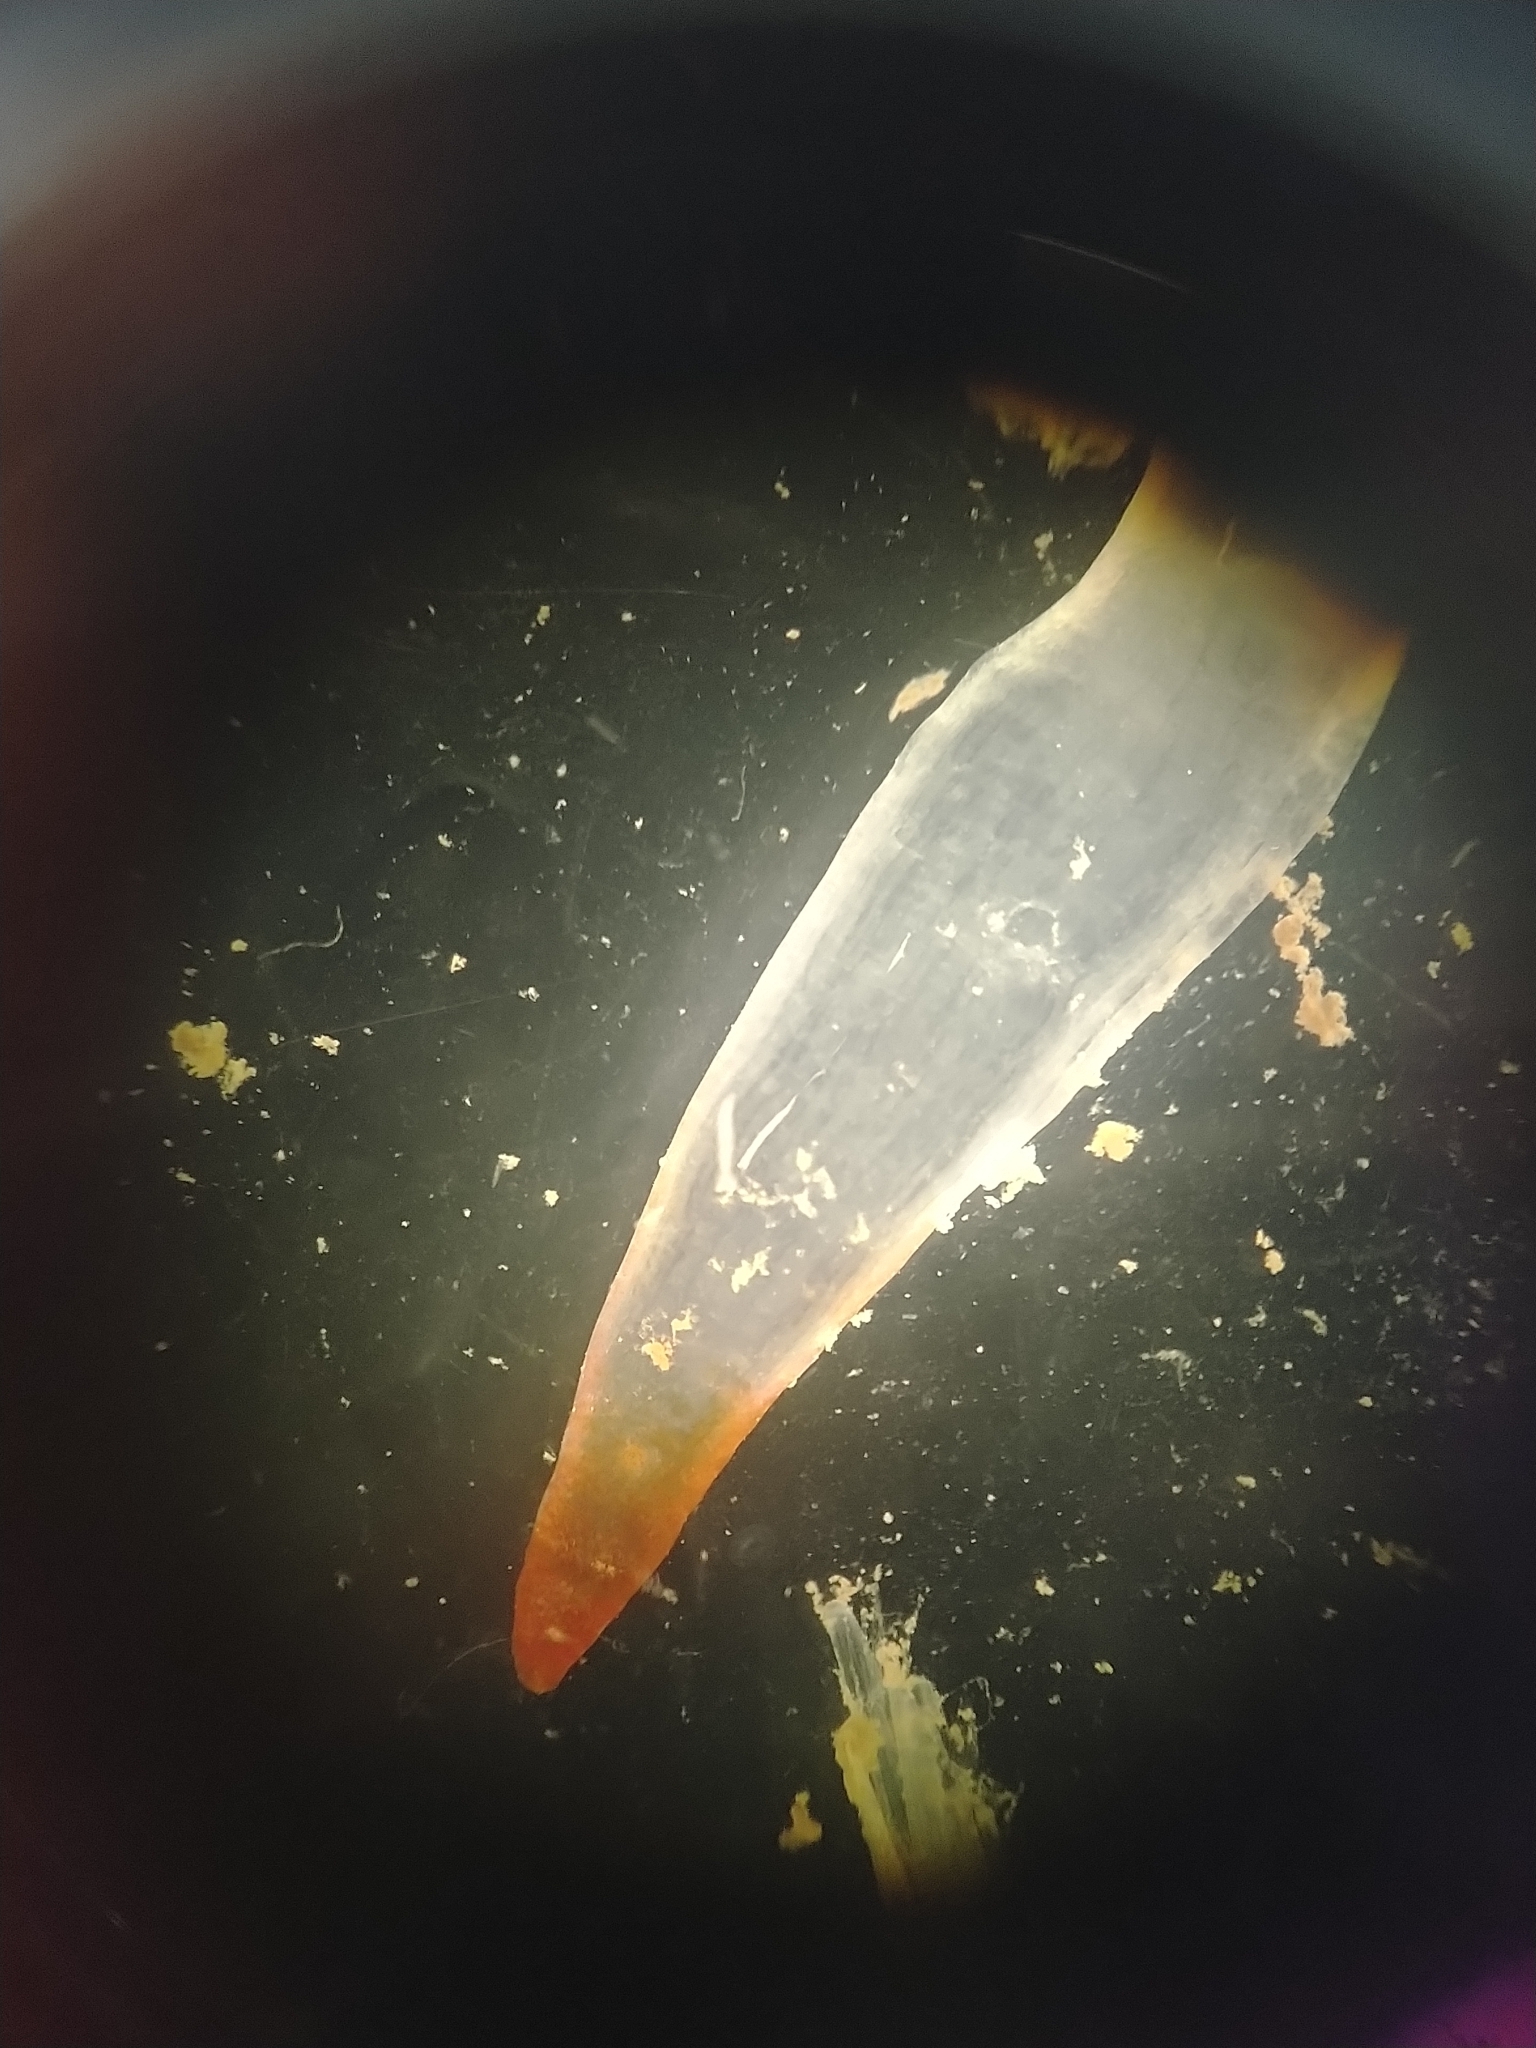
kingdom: Animalia
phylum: Mollusca
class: Gastropoda
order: Pteropoda
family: Clionidae
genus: Clione
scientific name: Clione limacina
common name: Common clione
